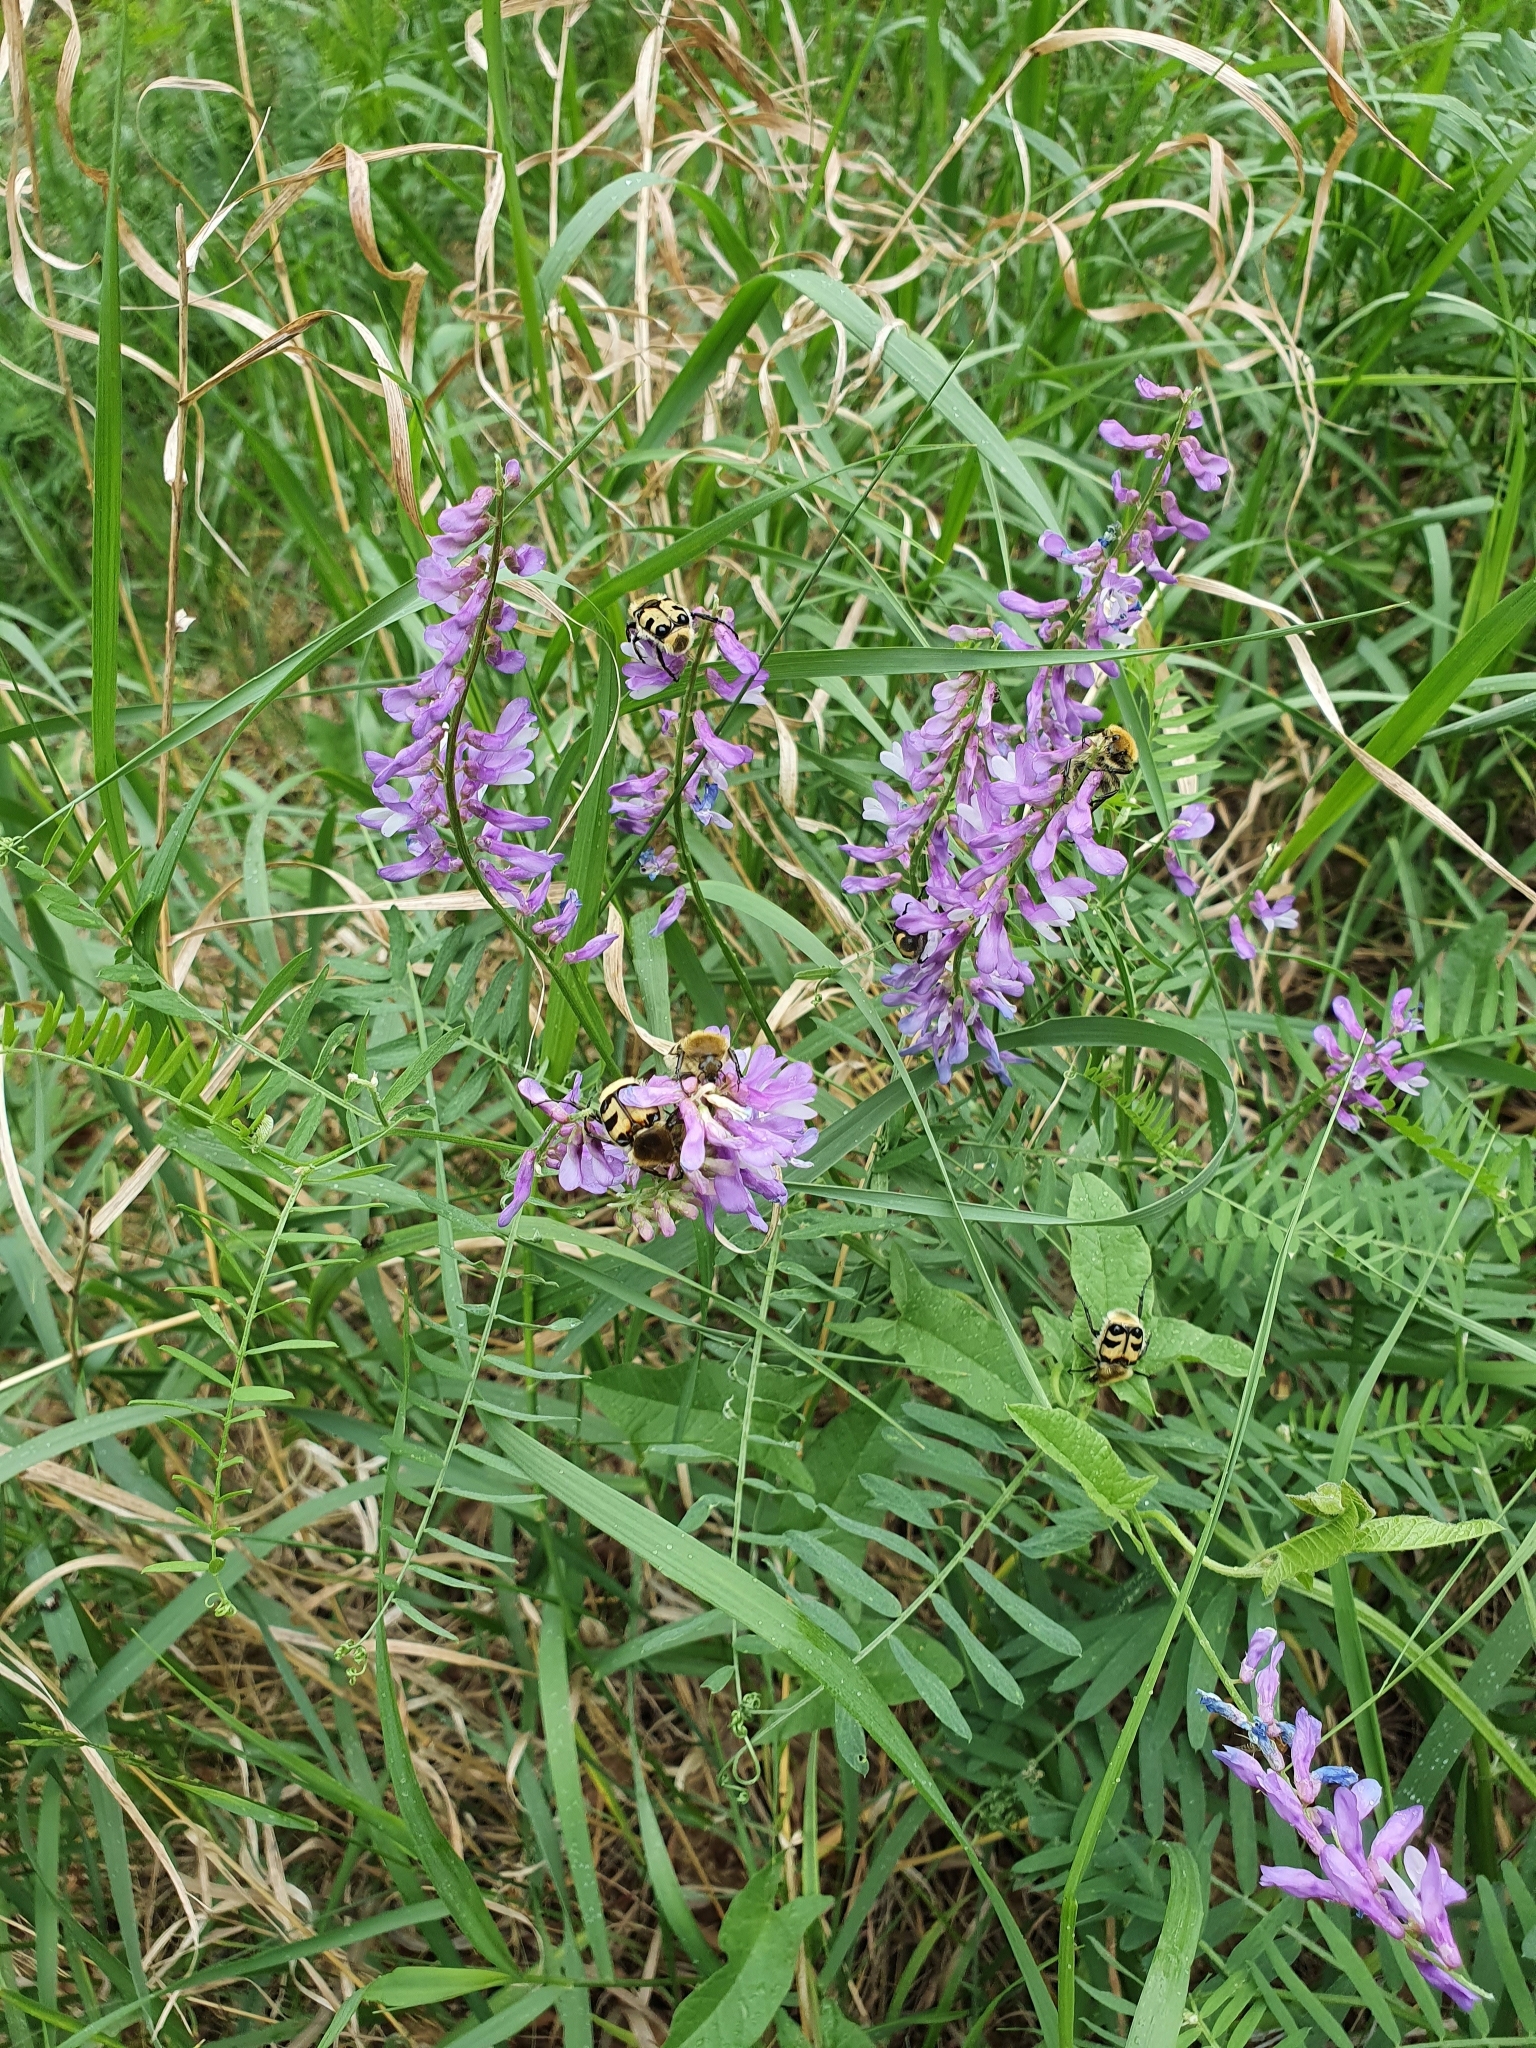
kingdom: Plantae
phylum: Tracheophyta
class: Magnoliopsida
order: Fabales
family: Fabaceae
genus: Vicia
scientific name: Vicia tenuifolia
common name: Fine-leaved vetch
